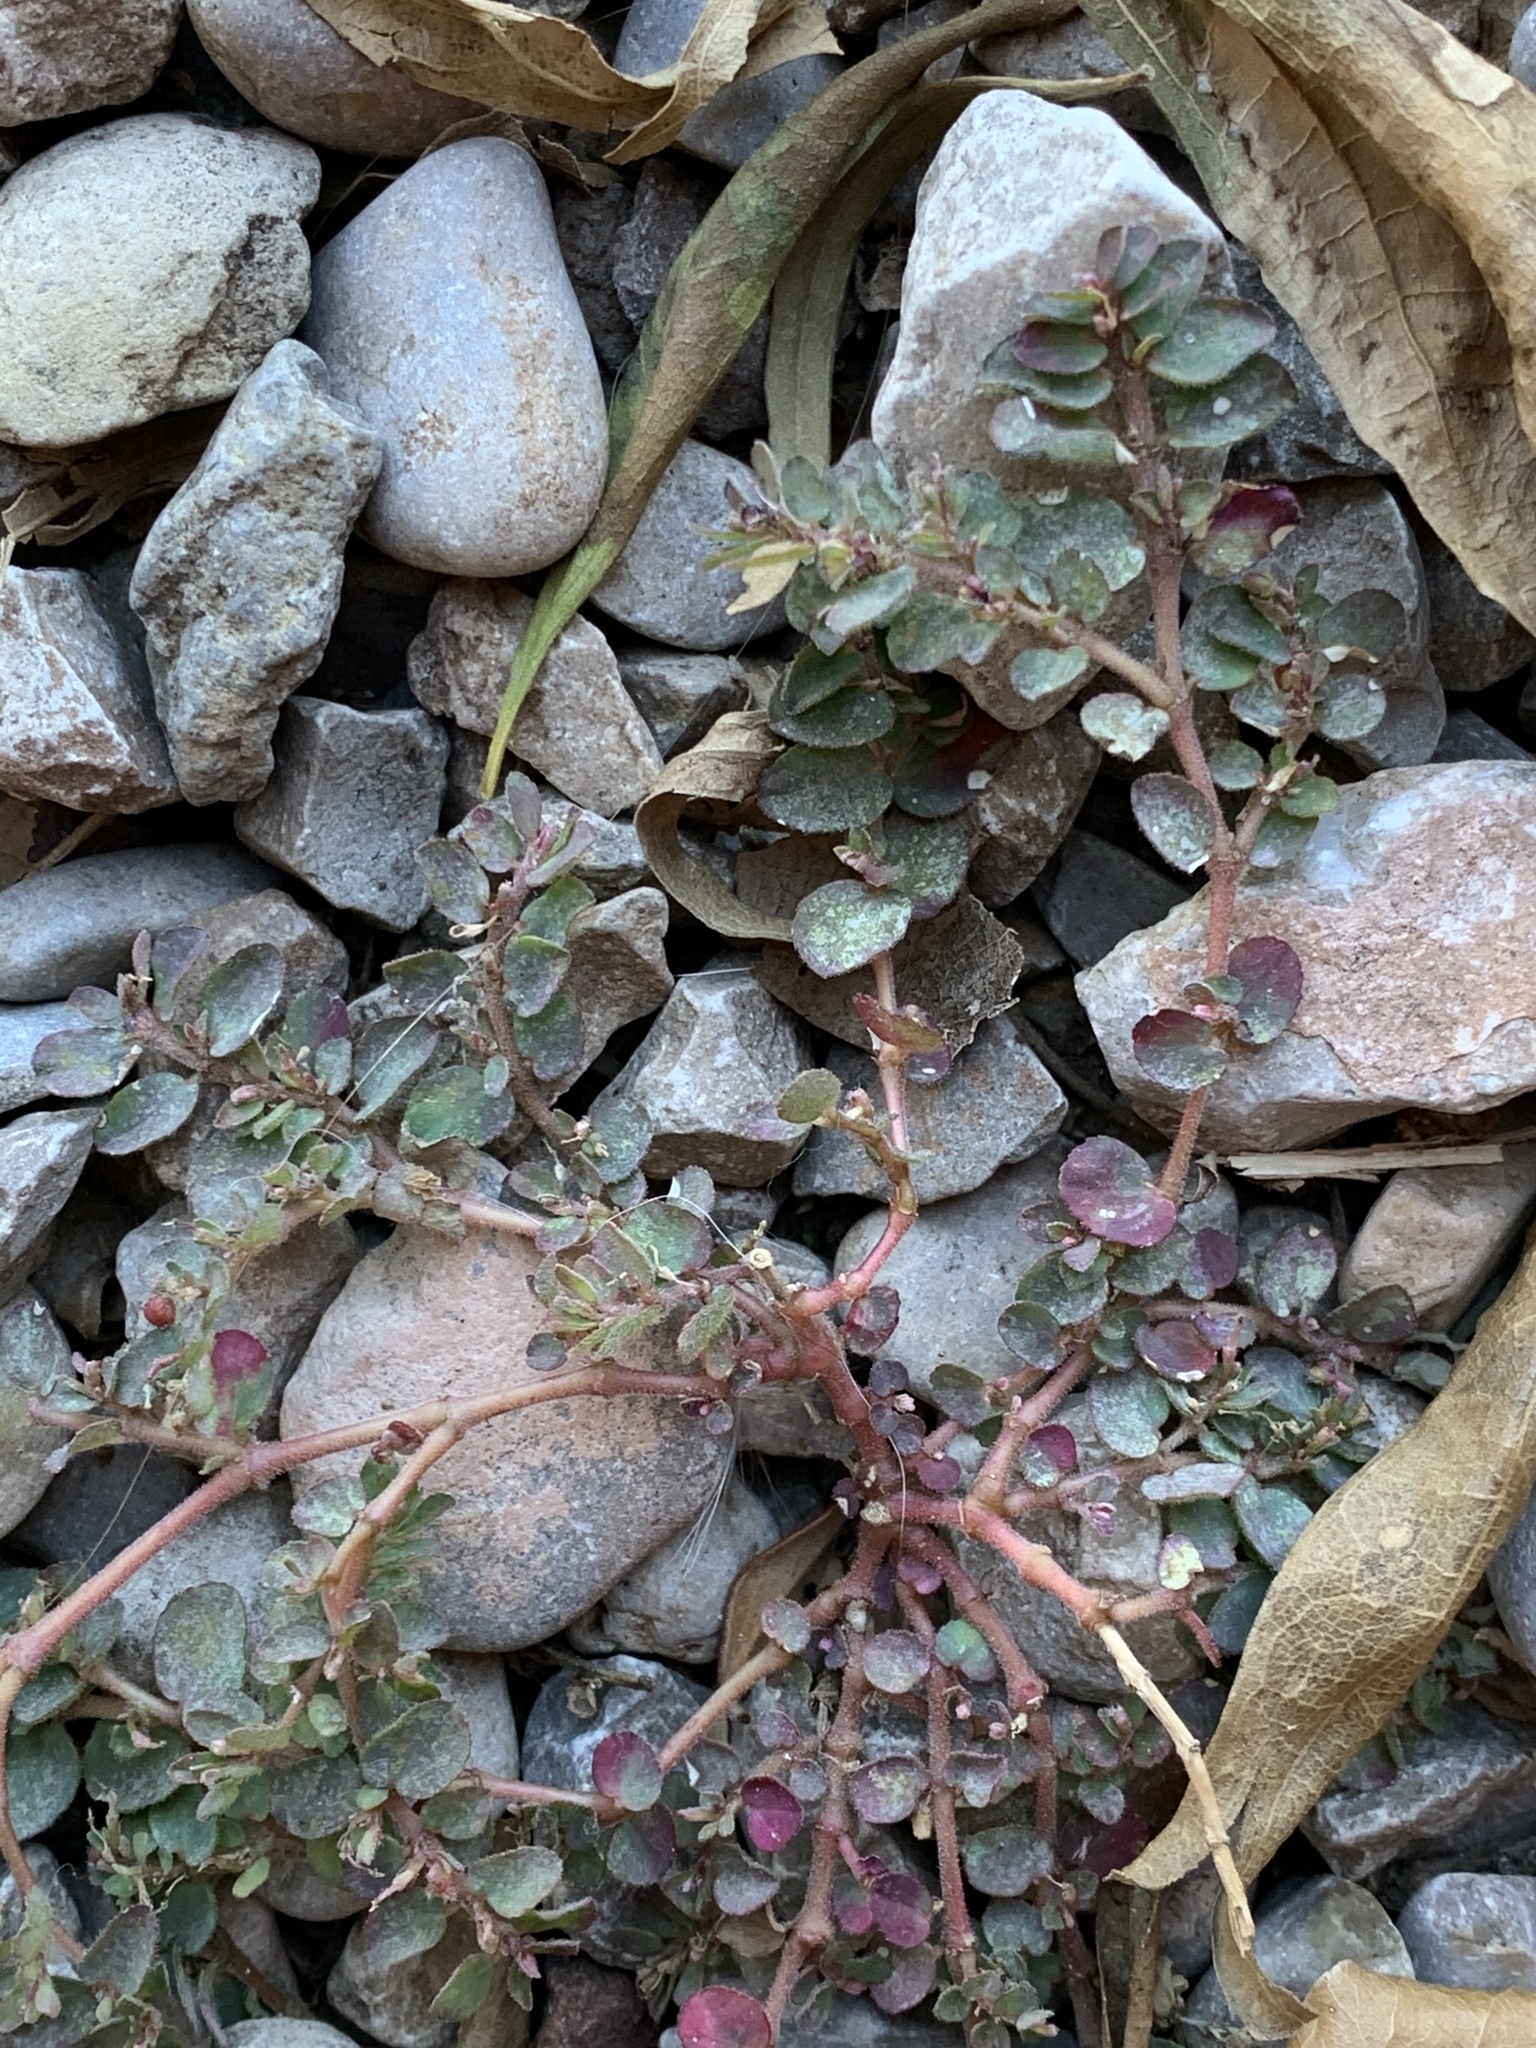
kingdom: Plantae
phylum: Tracheophyta
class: Magnoliopsida
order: Malpighiales
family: Euphorbiaceae
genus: Euphorbia
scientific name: Euphorbia prostrata
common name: Prostrate sandmat
